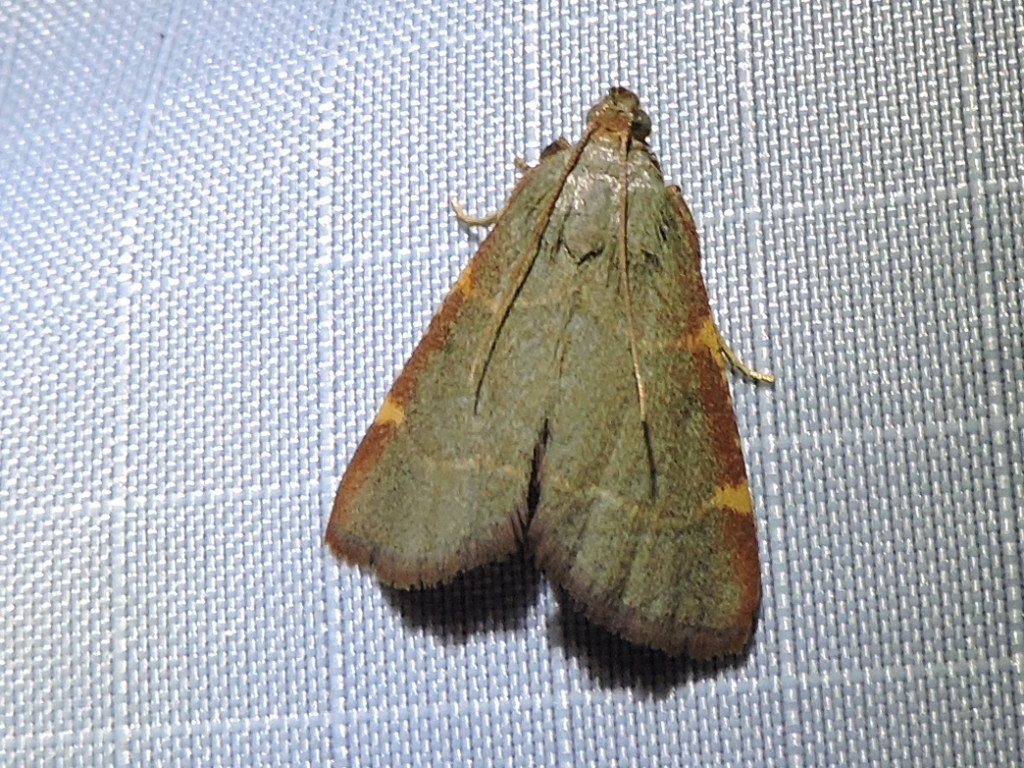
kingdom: Animalia
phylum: Arthropoda
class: Insecta
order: Lepidoptera
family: Pyralidae
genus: Hypsopygia
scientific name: Hypsopygia binodulalis
